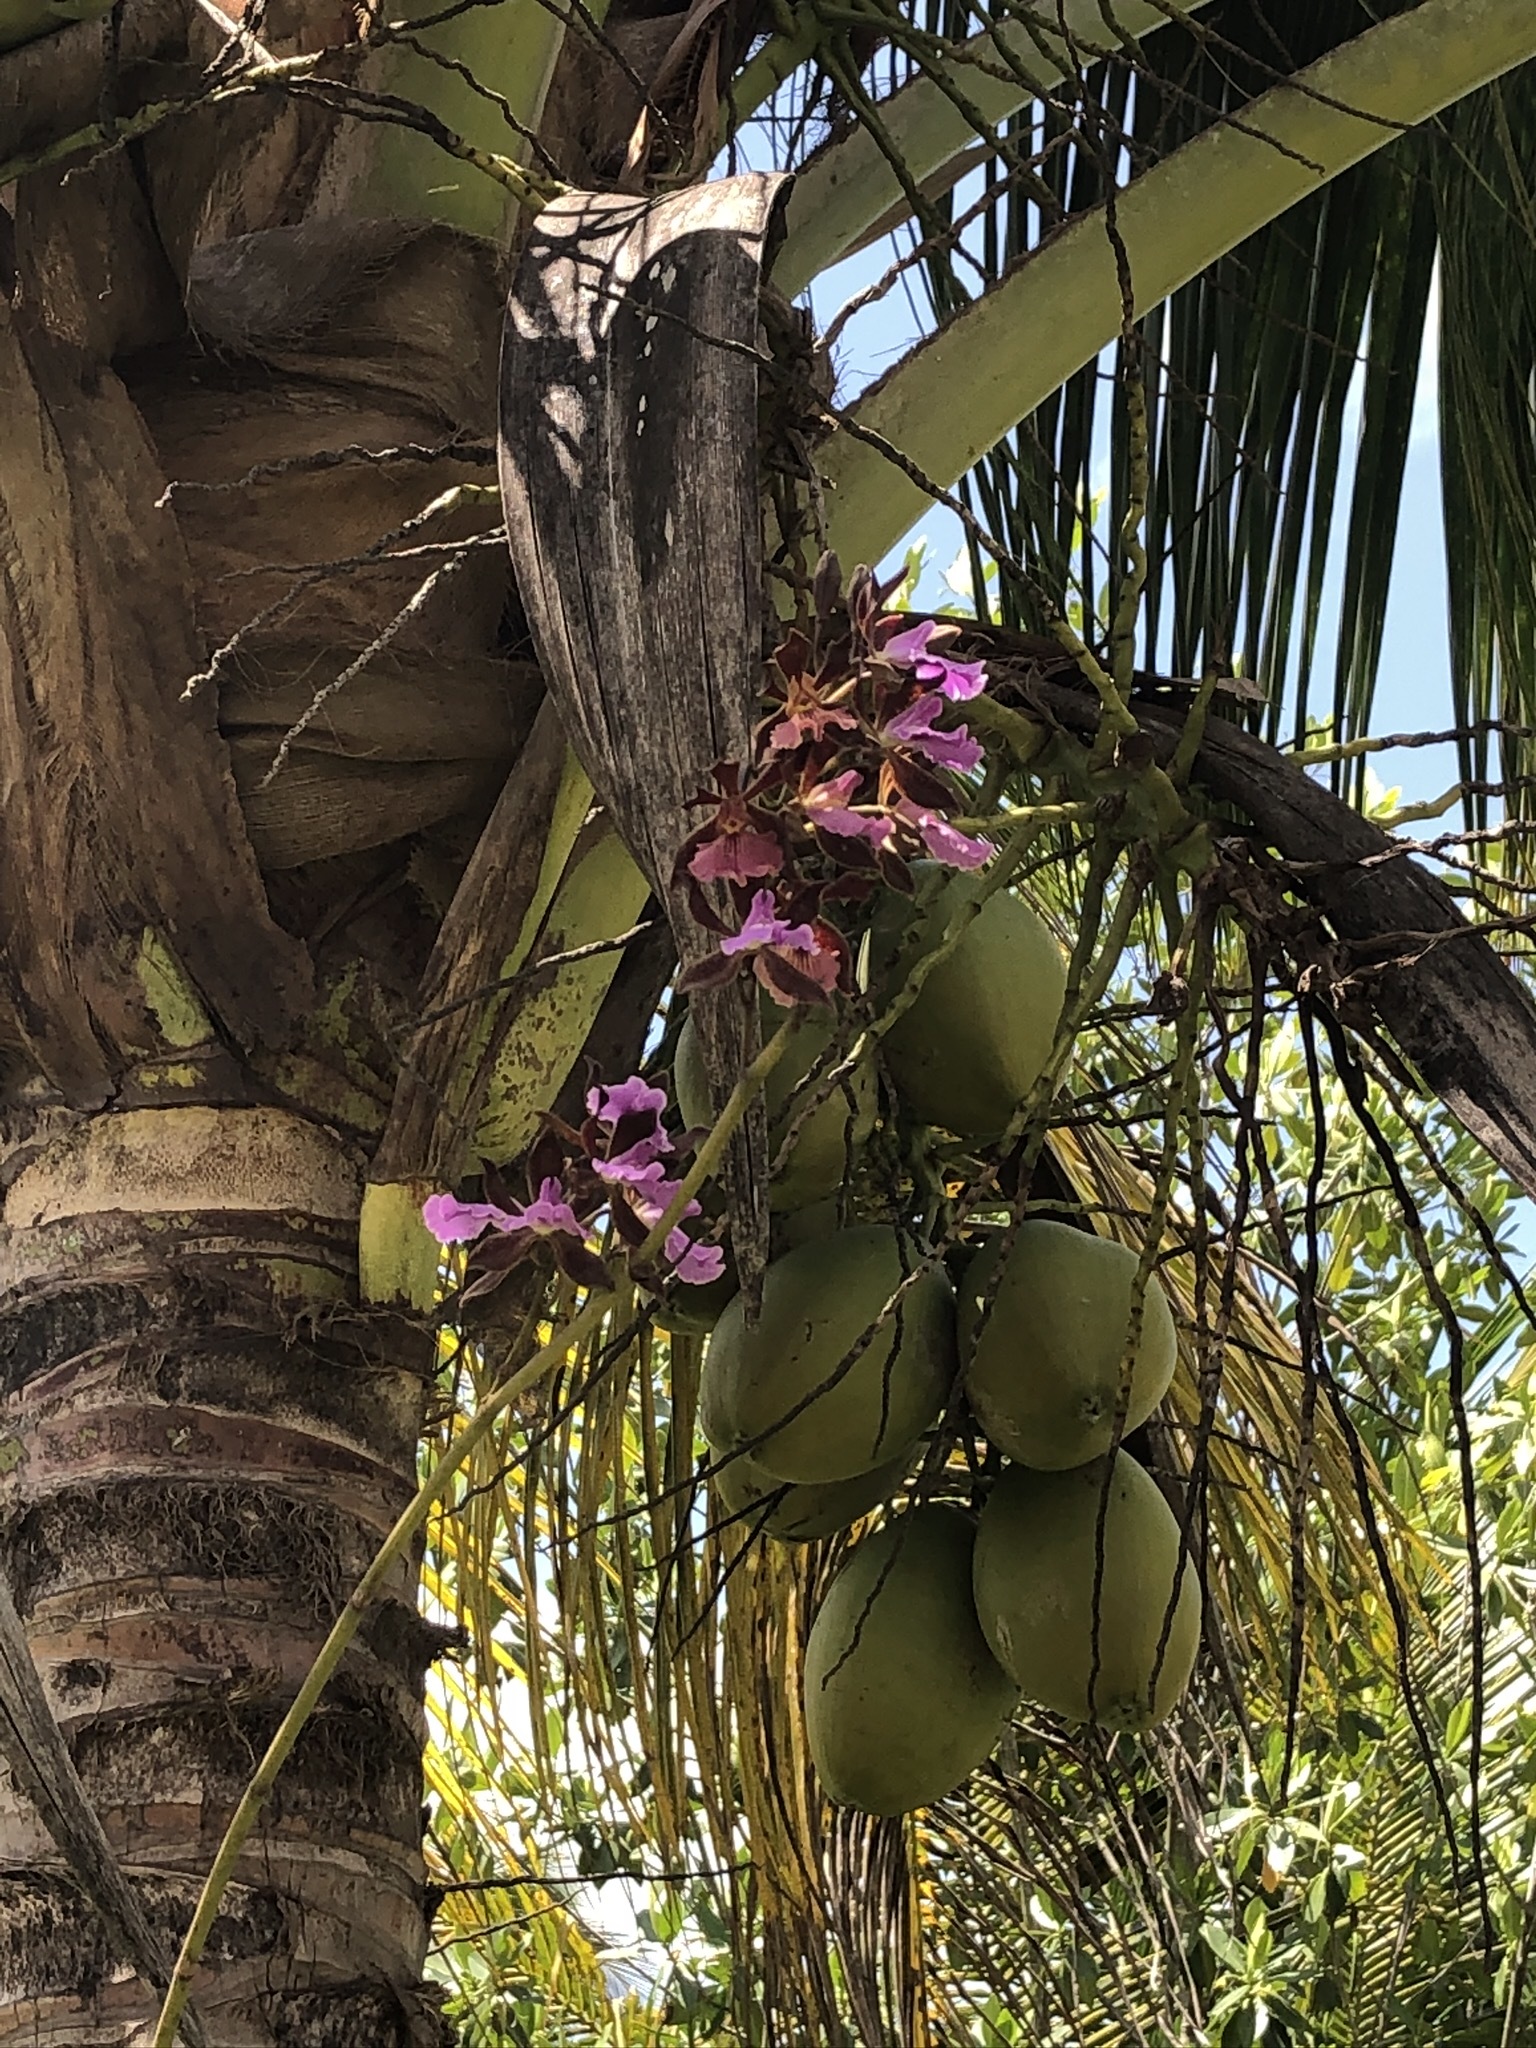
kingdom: Plantae
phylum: Tracheophyta
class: Liliopsida
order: Asparagales
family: Orchidaceae
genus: Encyclia
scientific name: Encyclia phoenicea
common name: Chocolate orchid
